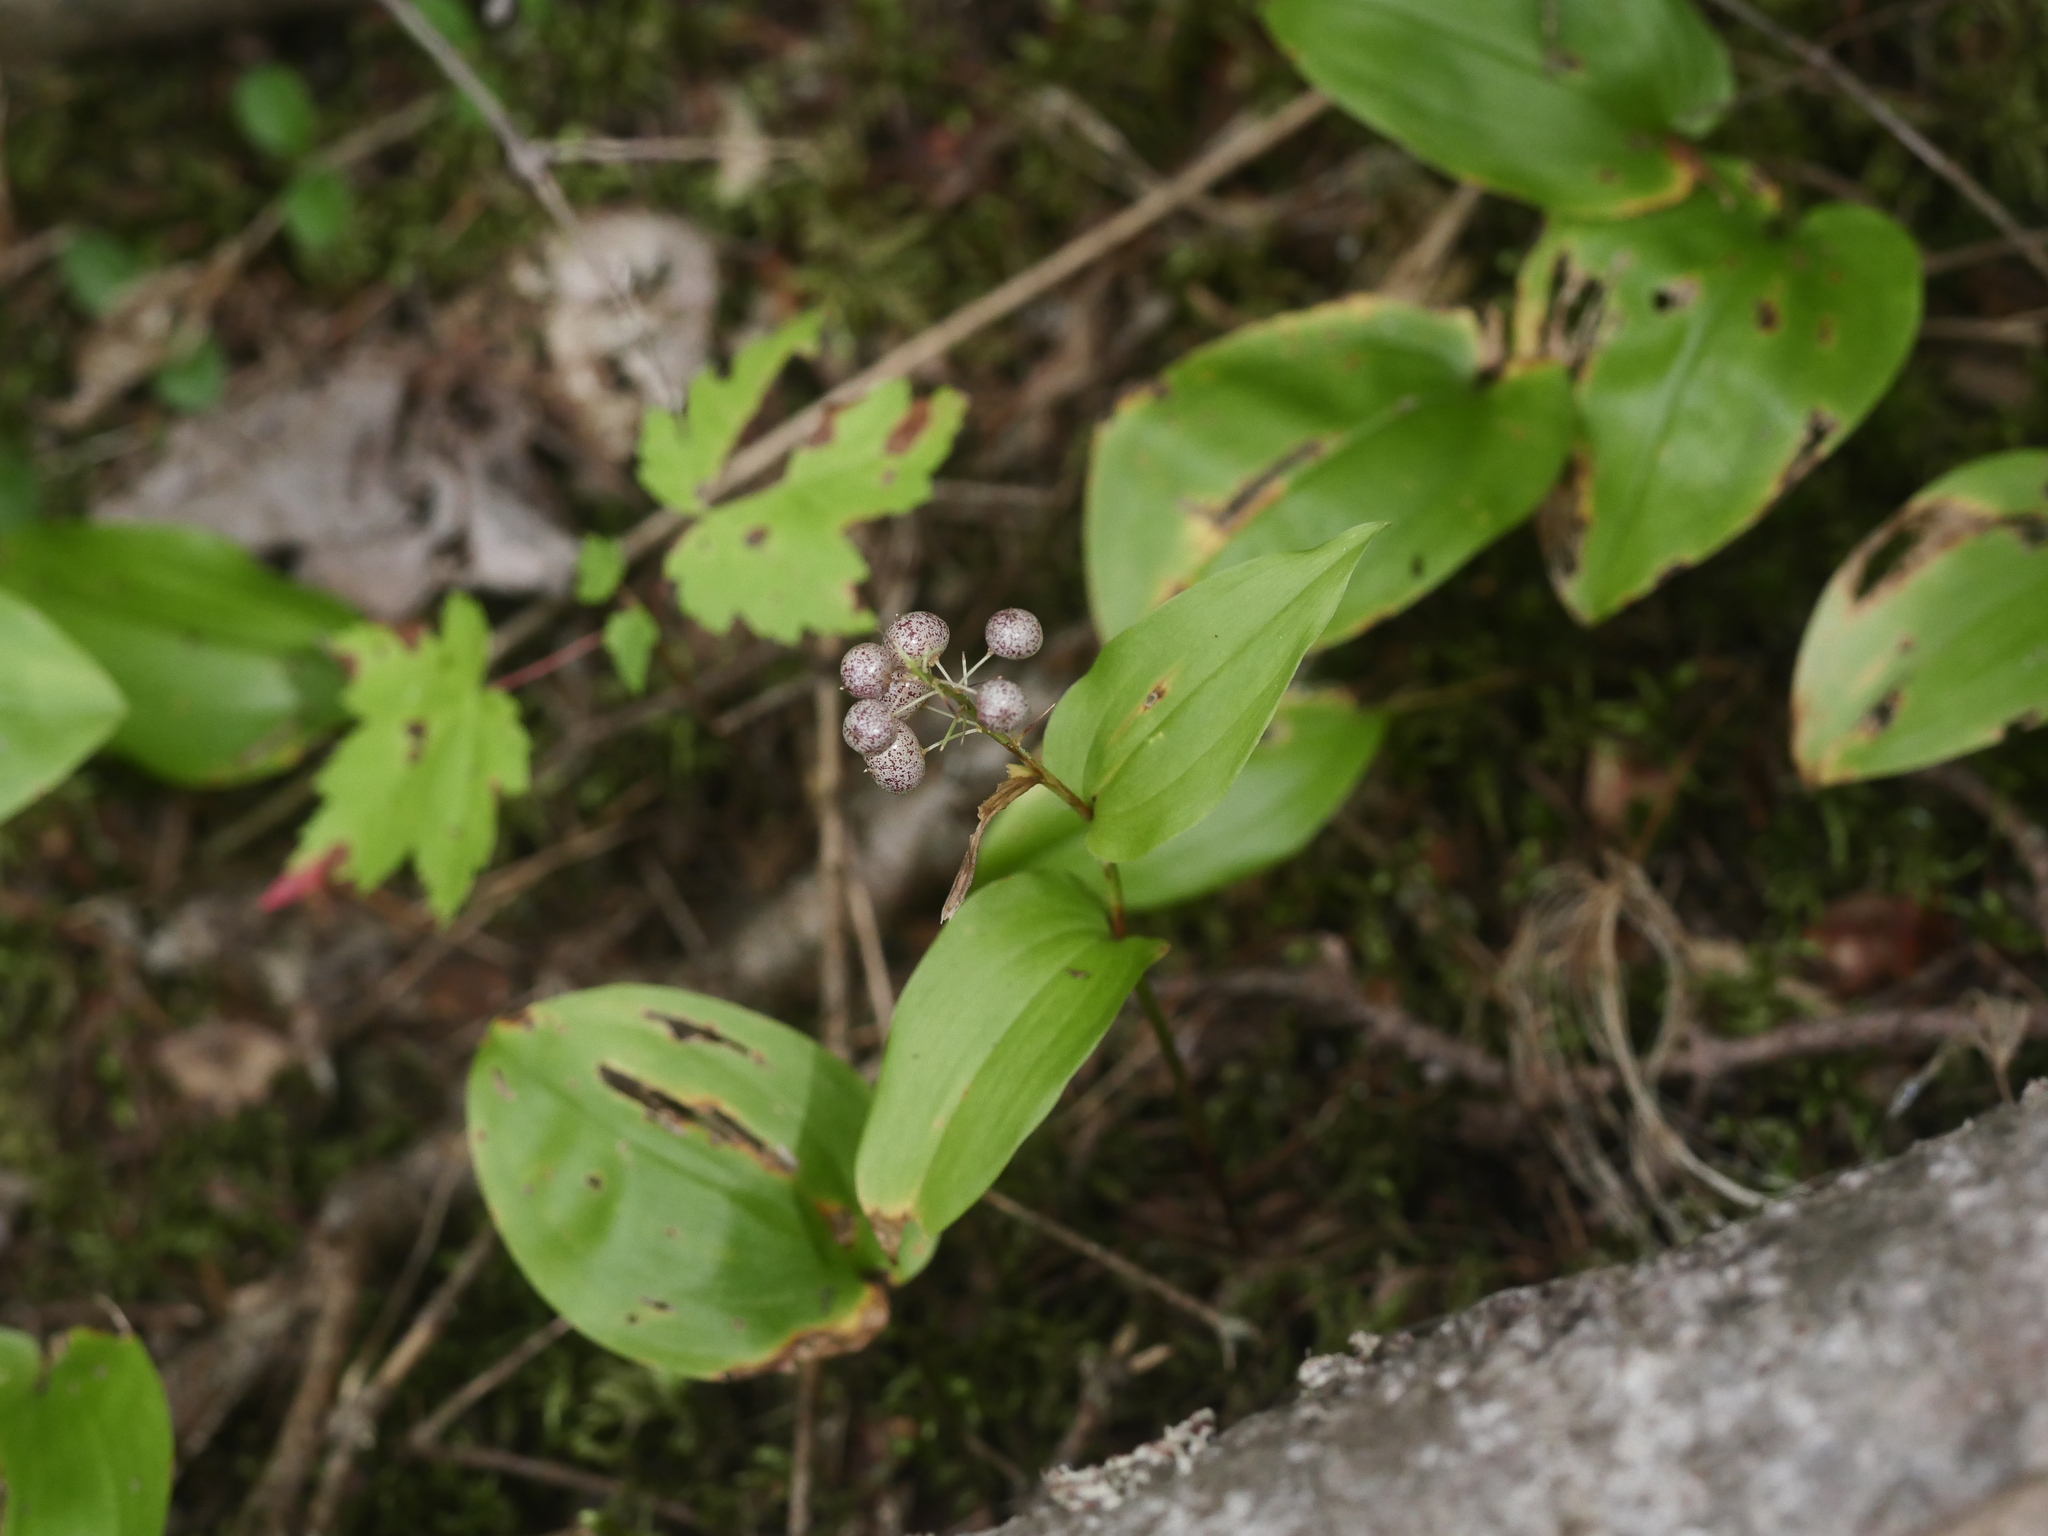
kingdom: Plantae
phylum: Tracheophyta
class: Liliopsida
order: Asparagales
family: Asparagaceae
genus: Maianthemum
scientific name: Maianthemum canadense
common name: False lily-of-the-valley
